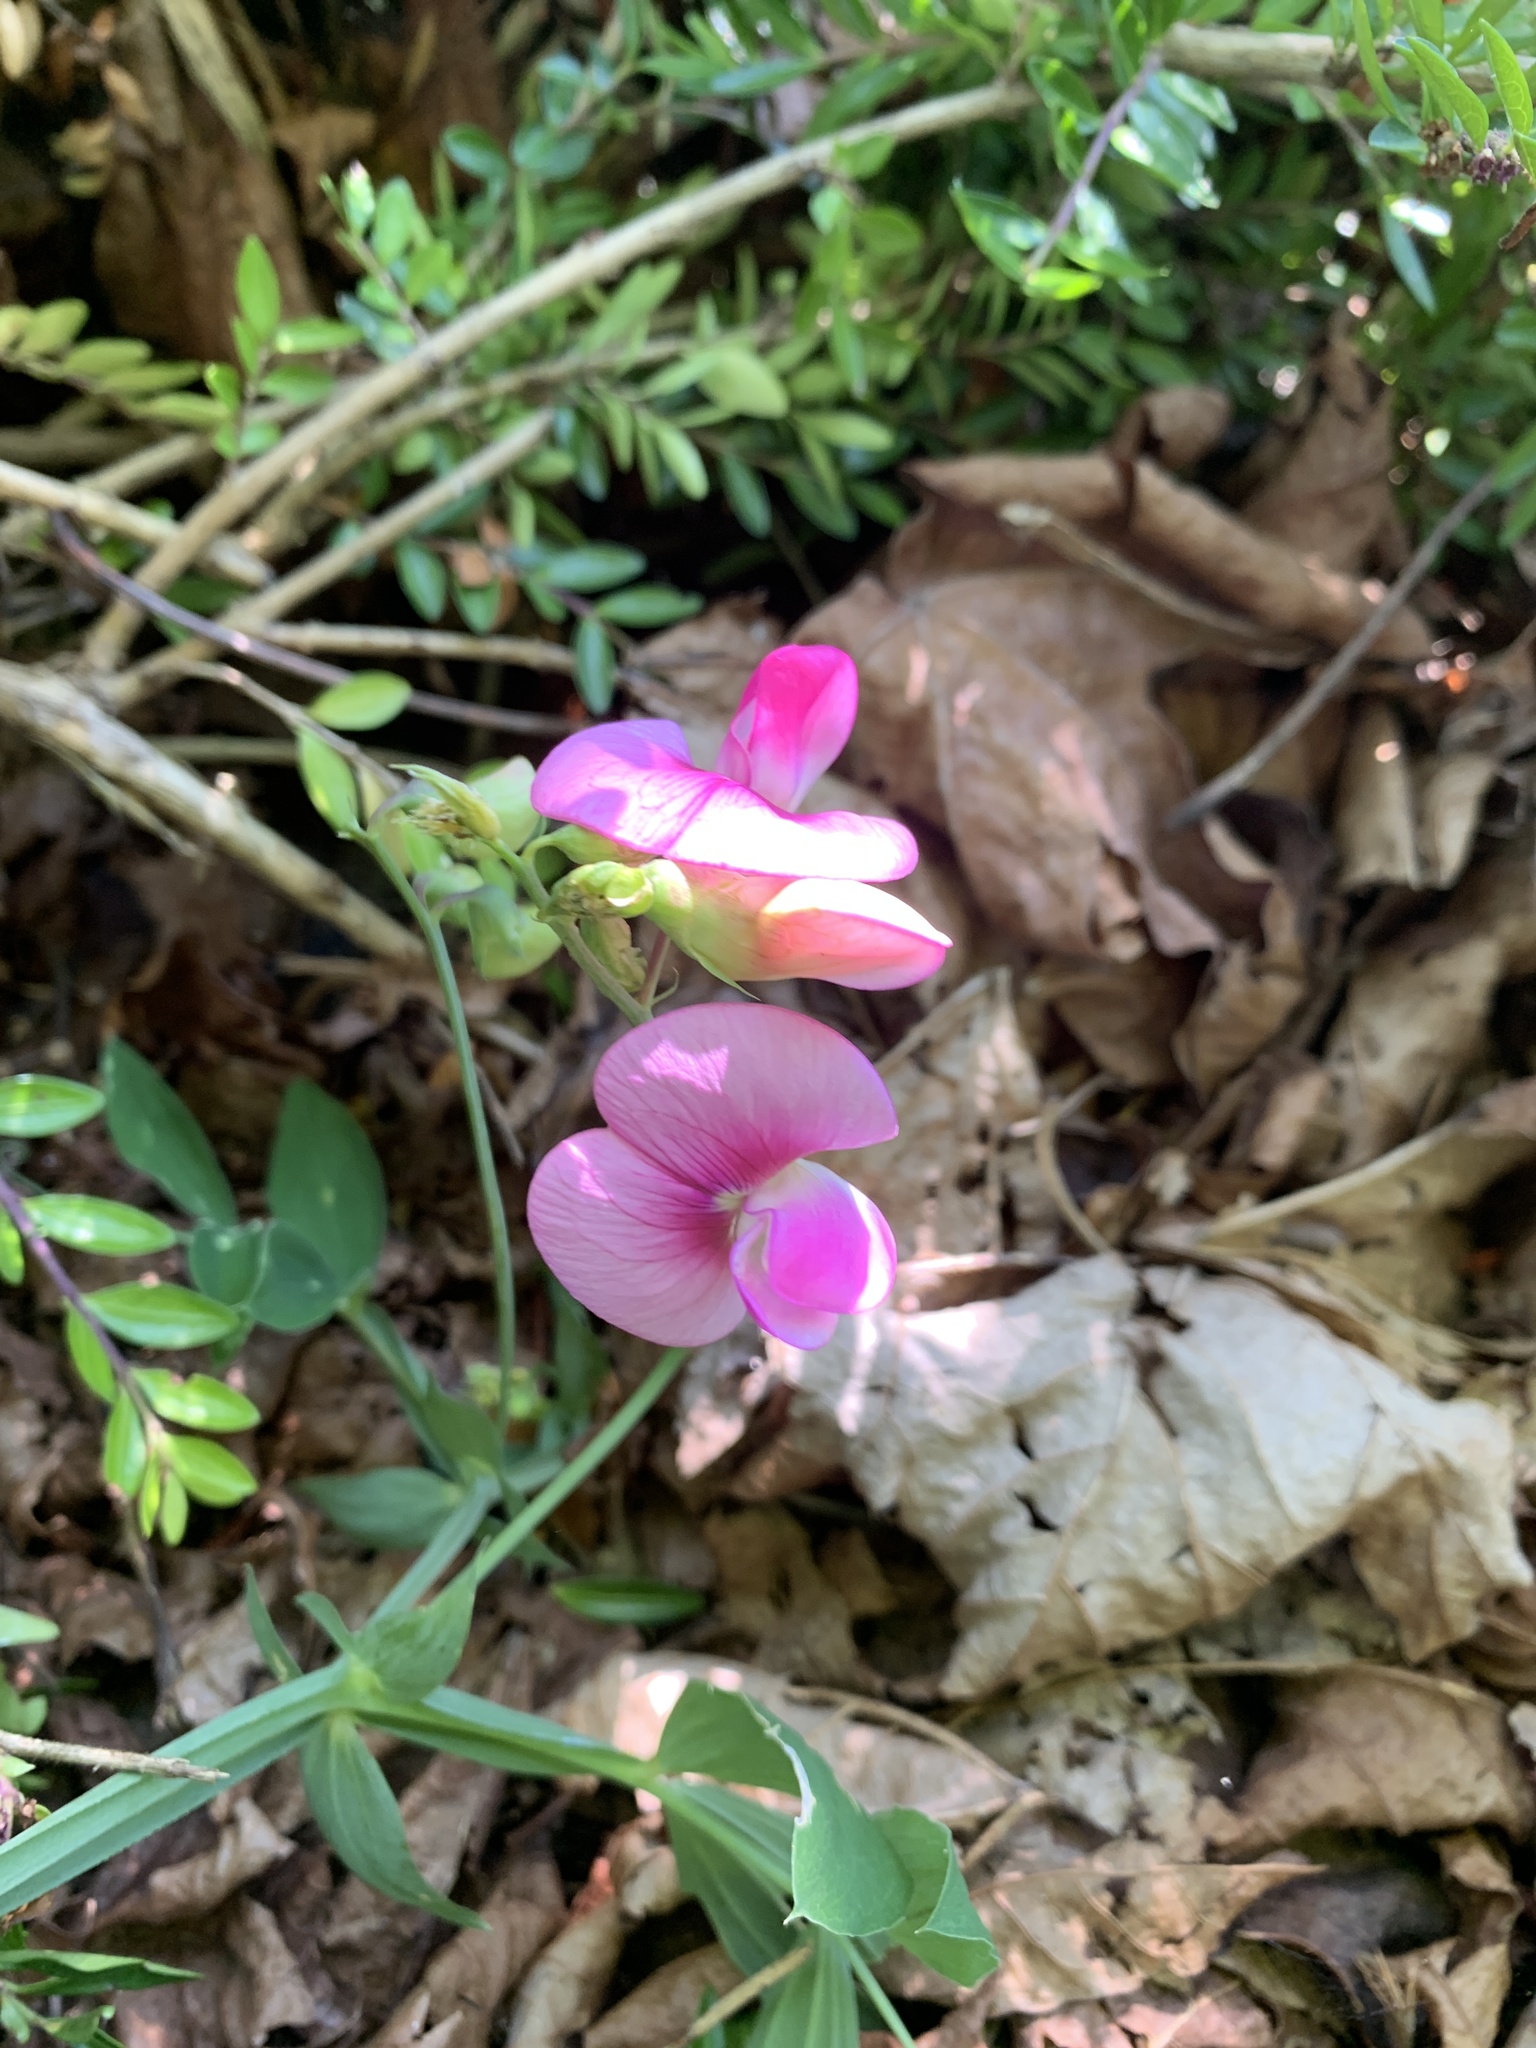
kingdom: Plantae
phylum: Tracheophyta
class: Magnoliopsida
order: Fabales
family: Fabaceae
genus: Lathyrus
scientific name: Lathyrus latifolius
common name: Perennial pea
